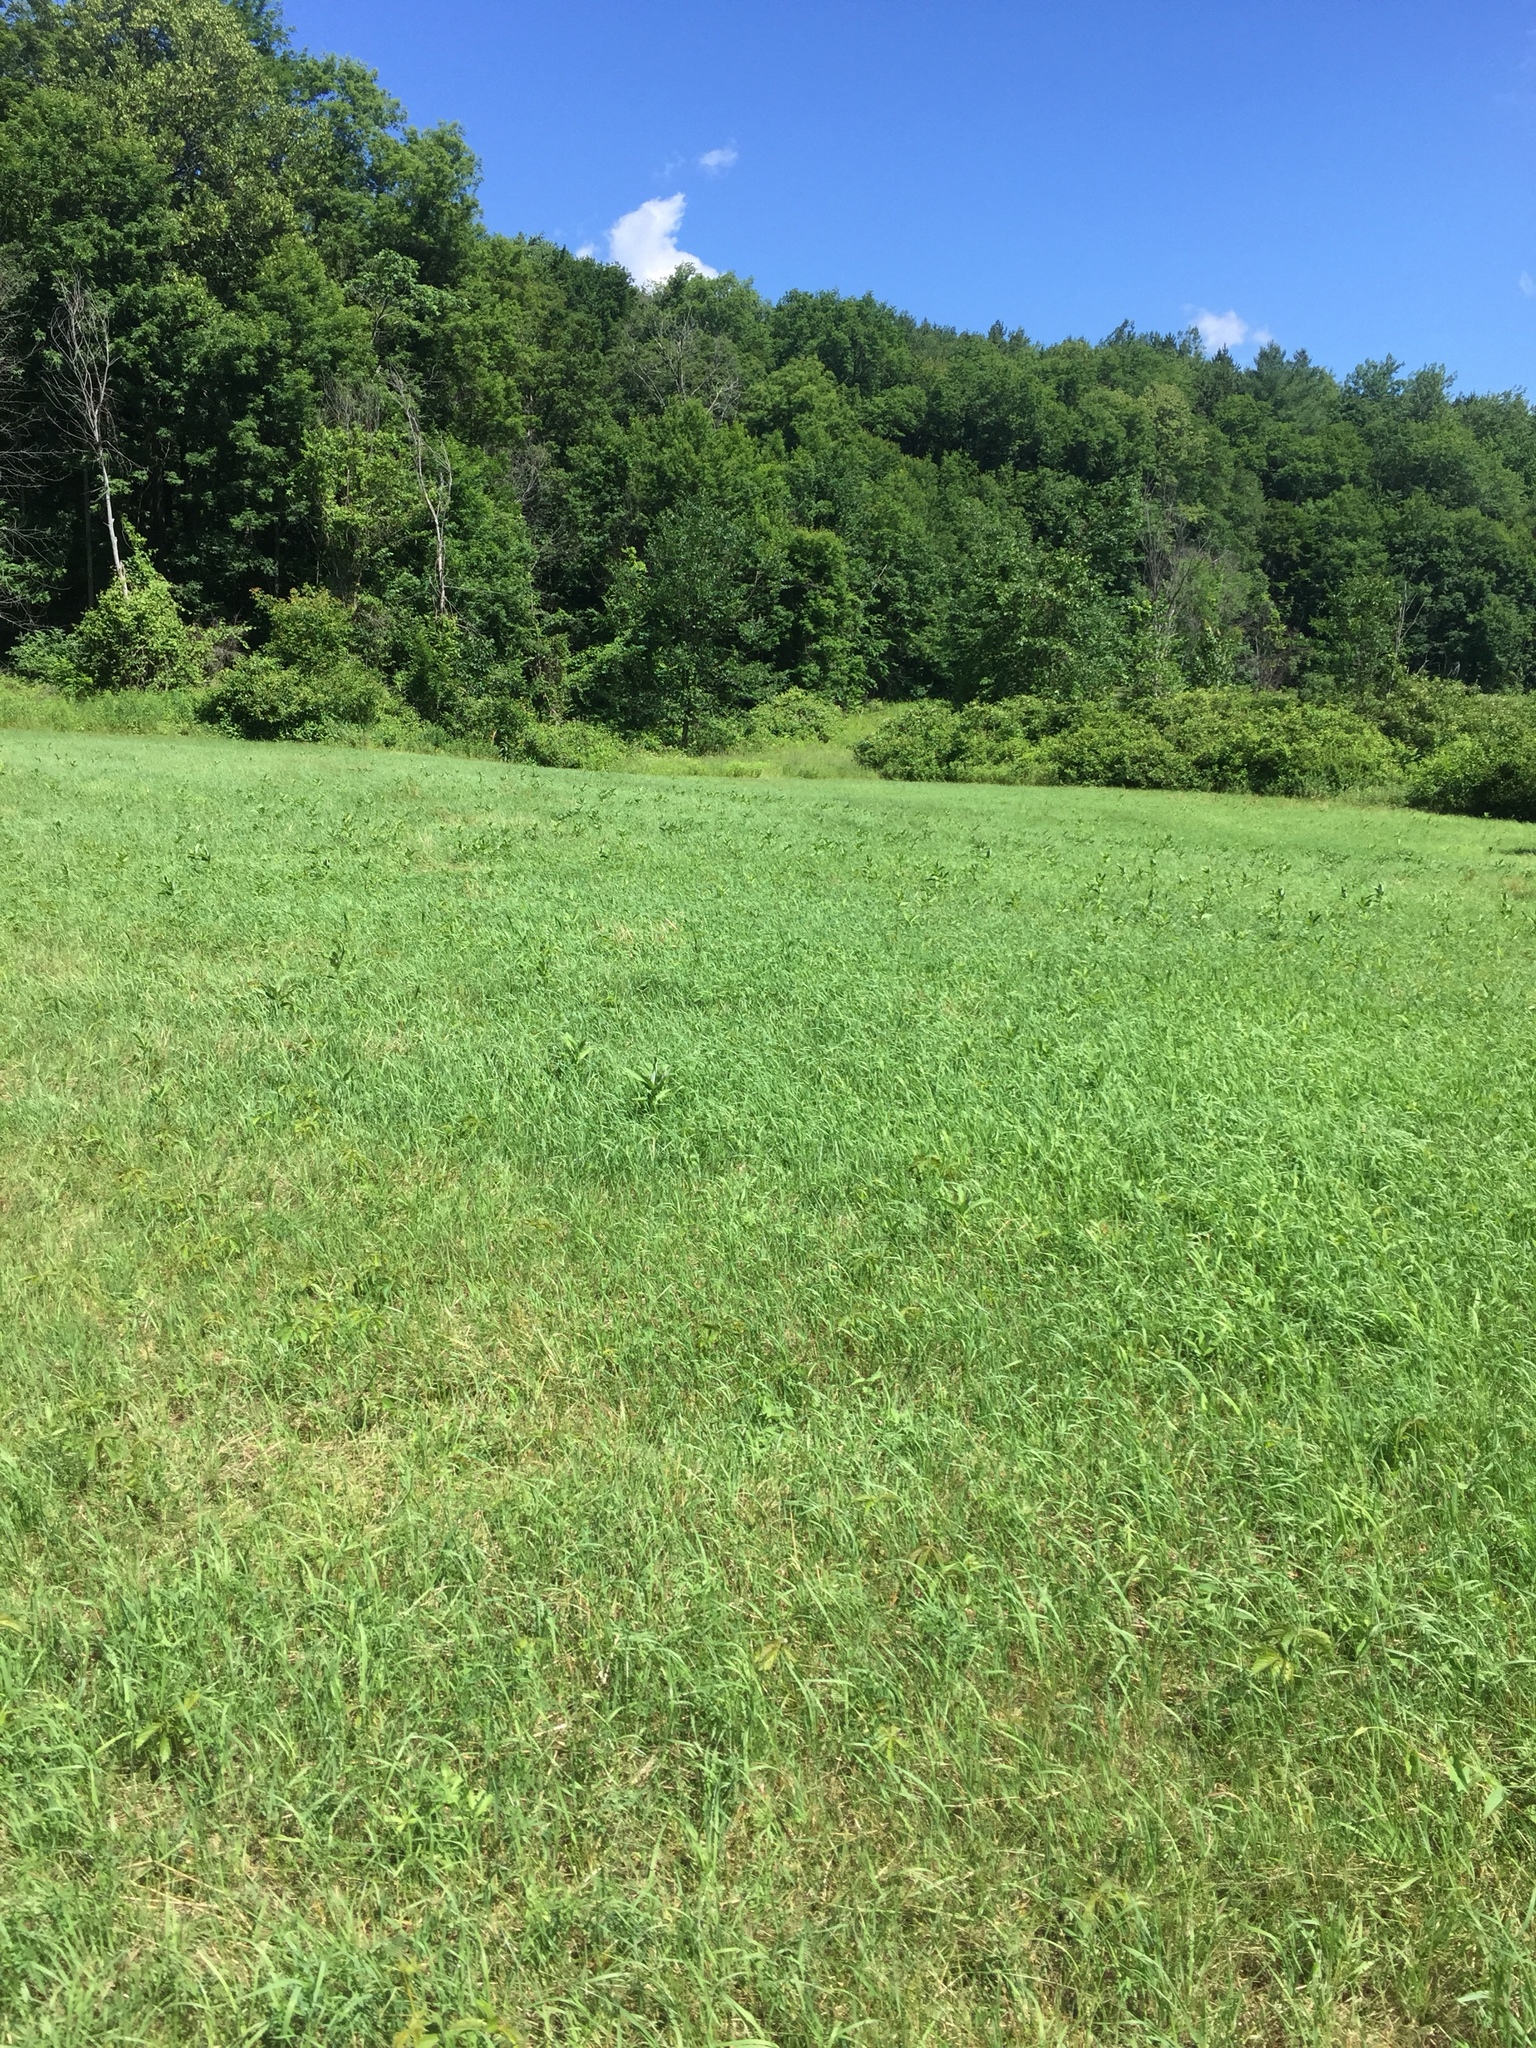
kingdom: Plantae
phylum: Tracheophyta
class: Magnoliopsida
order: Gentianales
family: Apocynaceae
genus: Asclepias
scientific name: Asclepias syriaca
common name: Common milkweed
